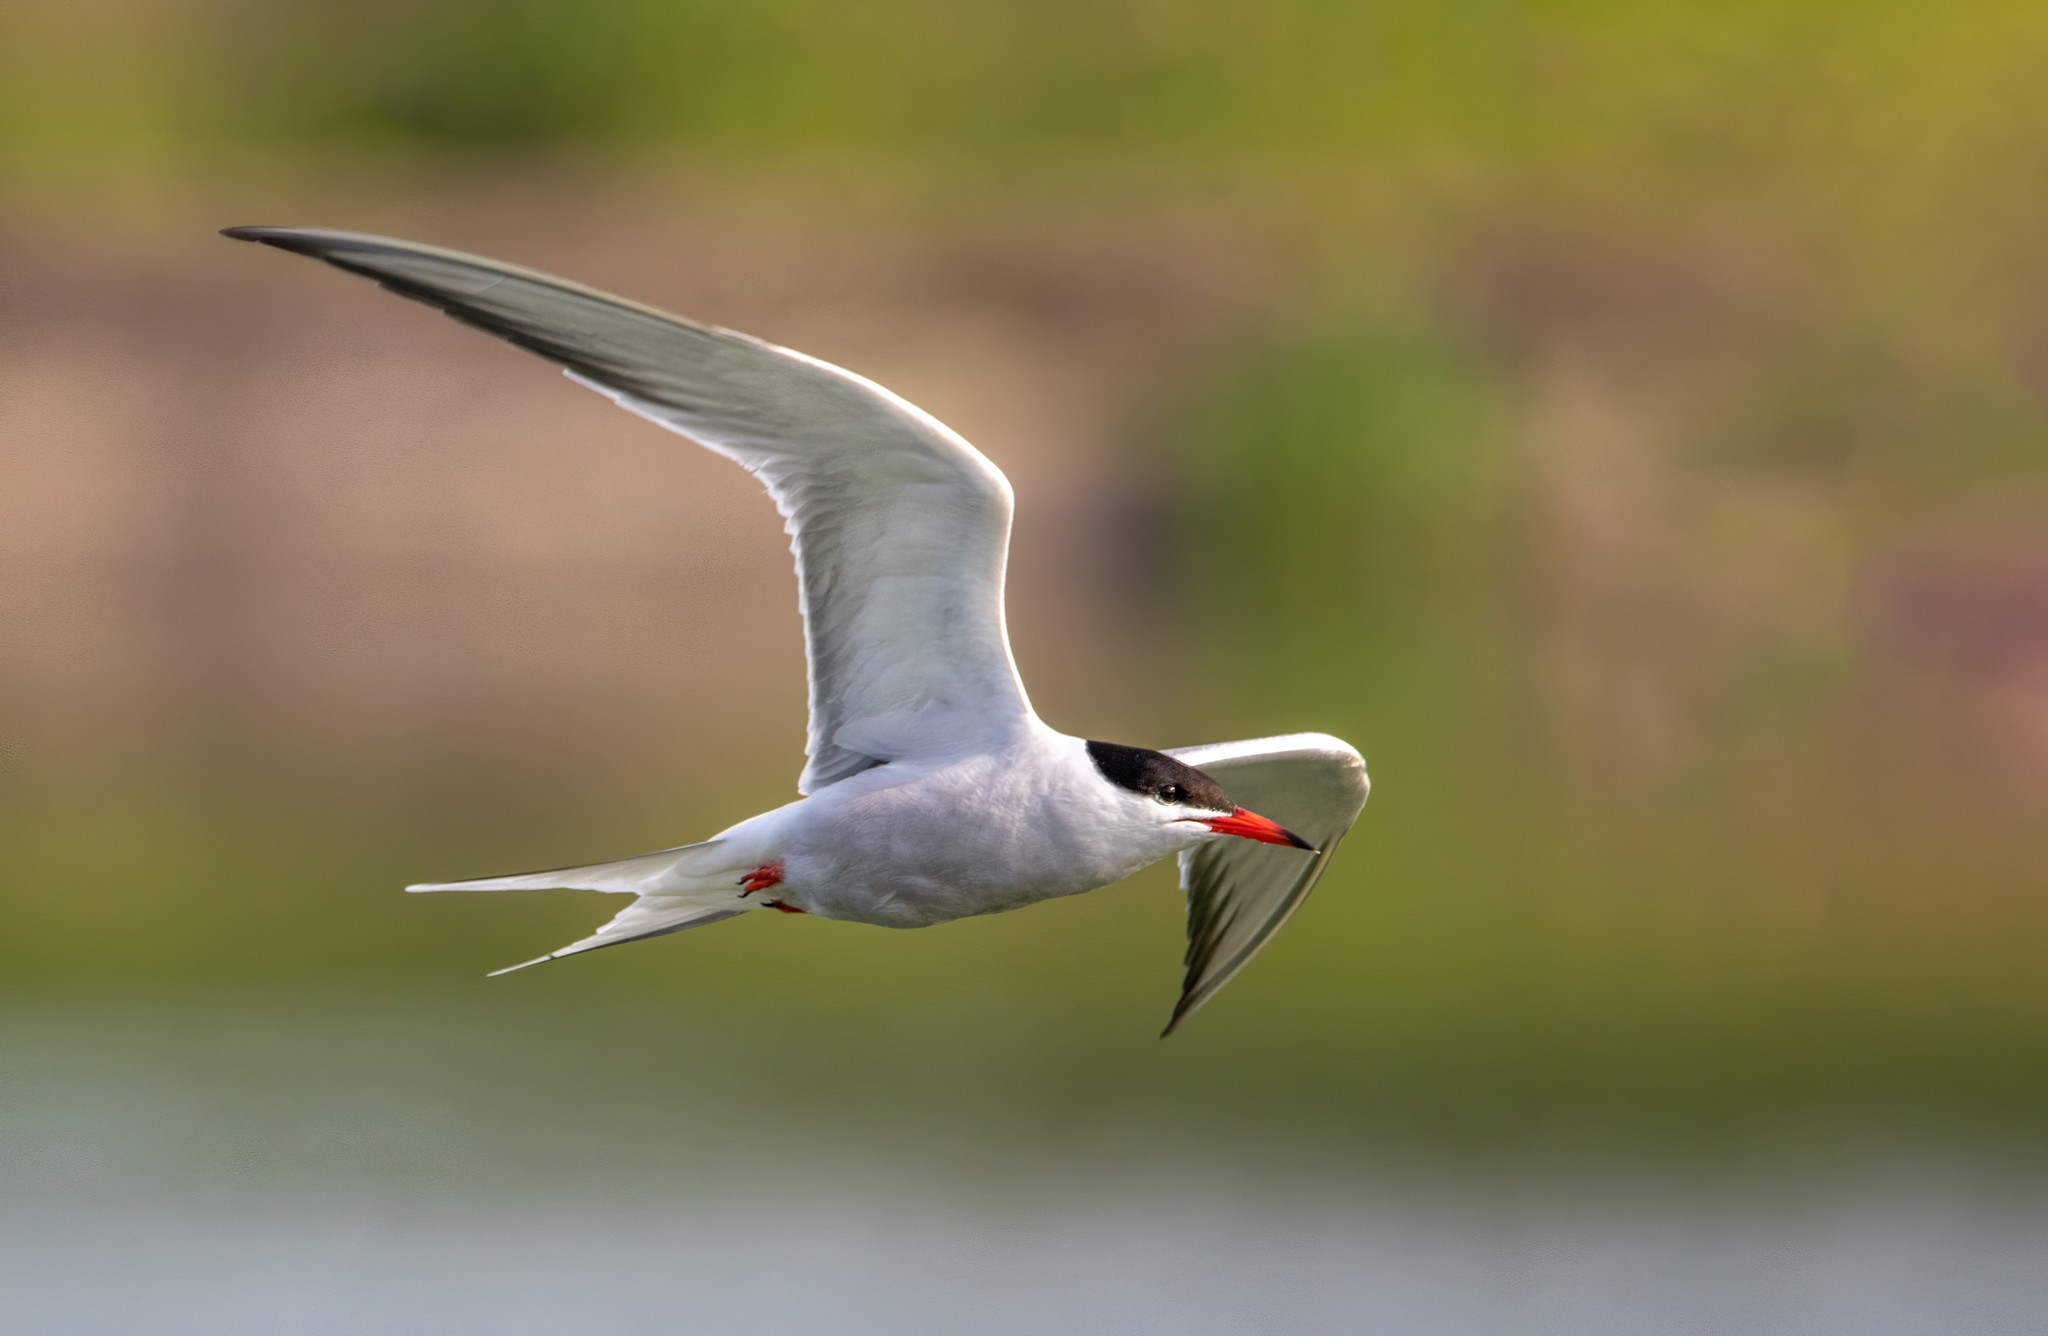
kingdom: Animalia
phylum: Chordata
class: Aves
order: Charadriiformes
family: Laridae
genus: Sterna
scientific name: Sterna hirundo
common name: Common tern
